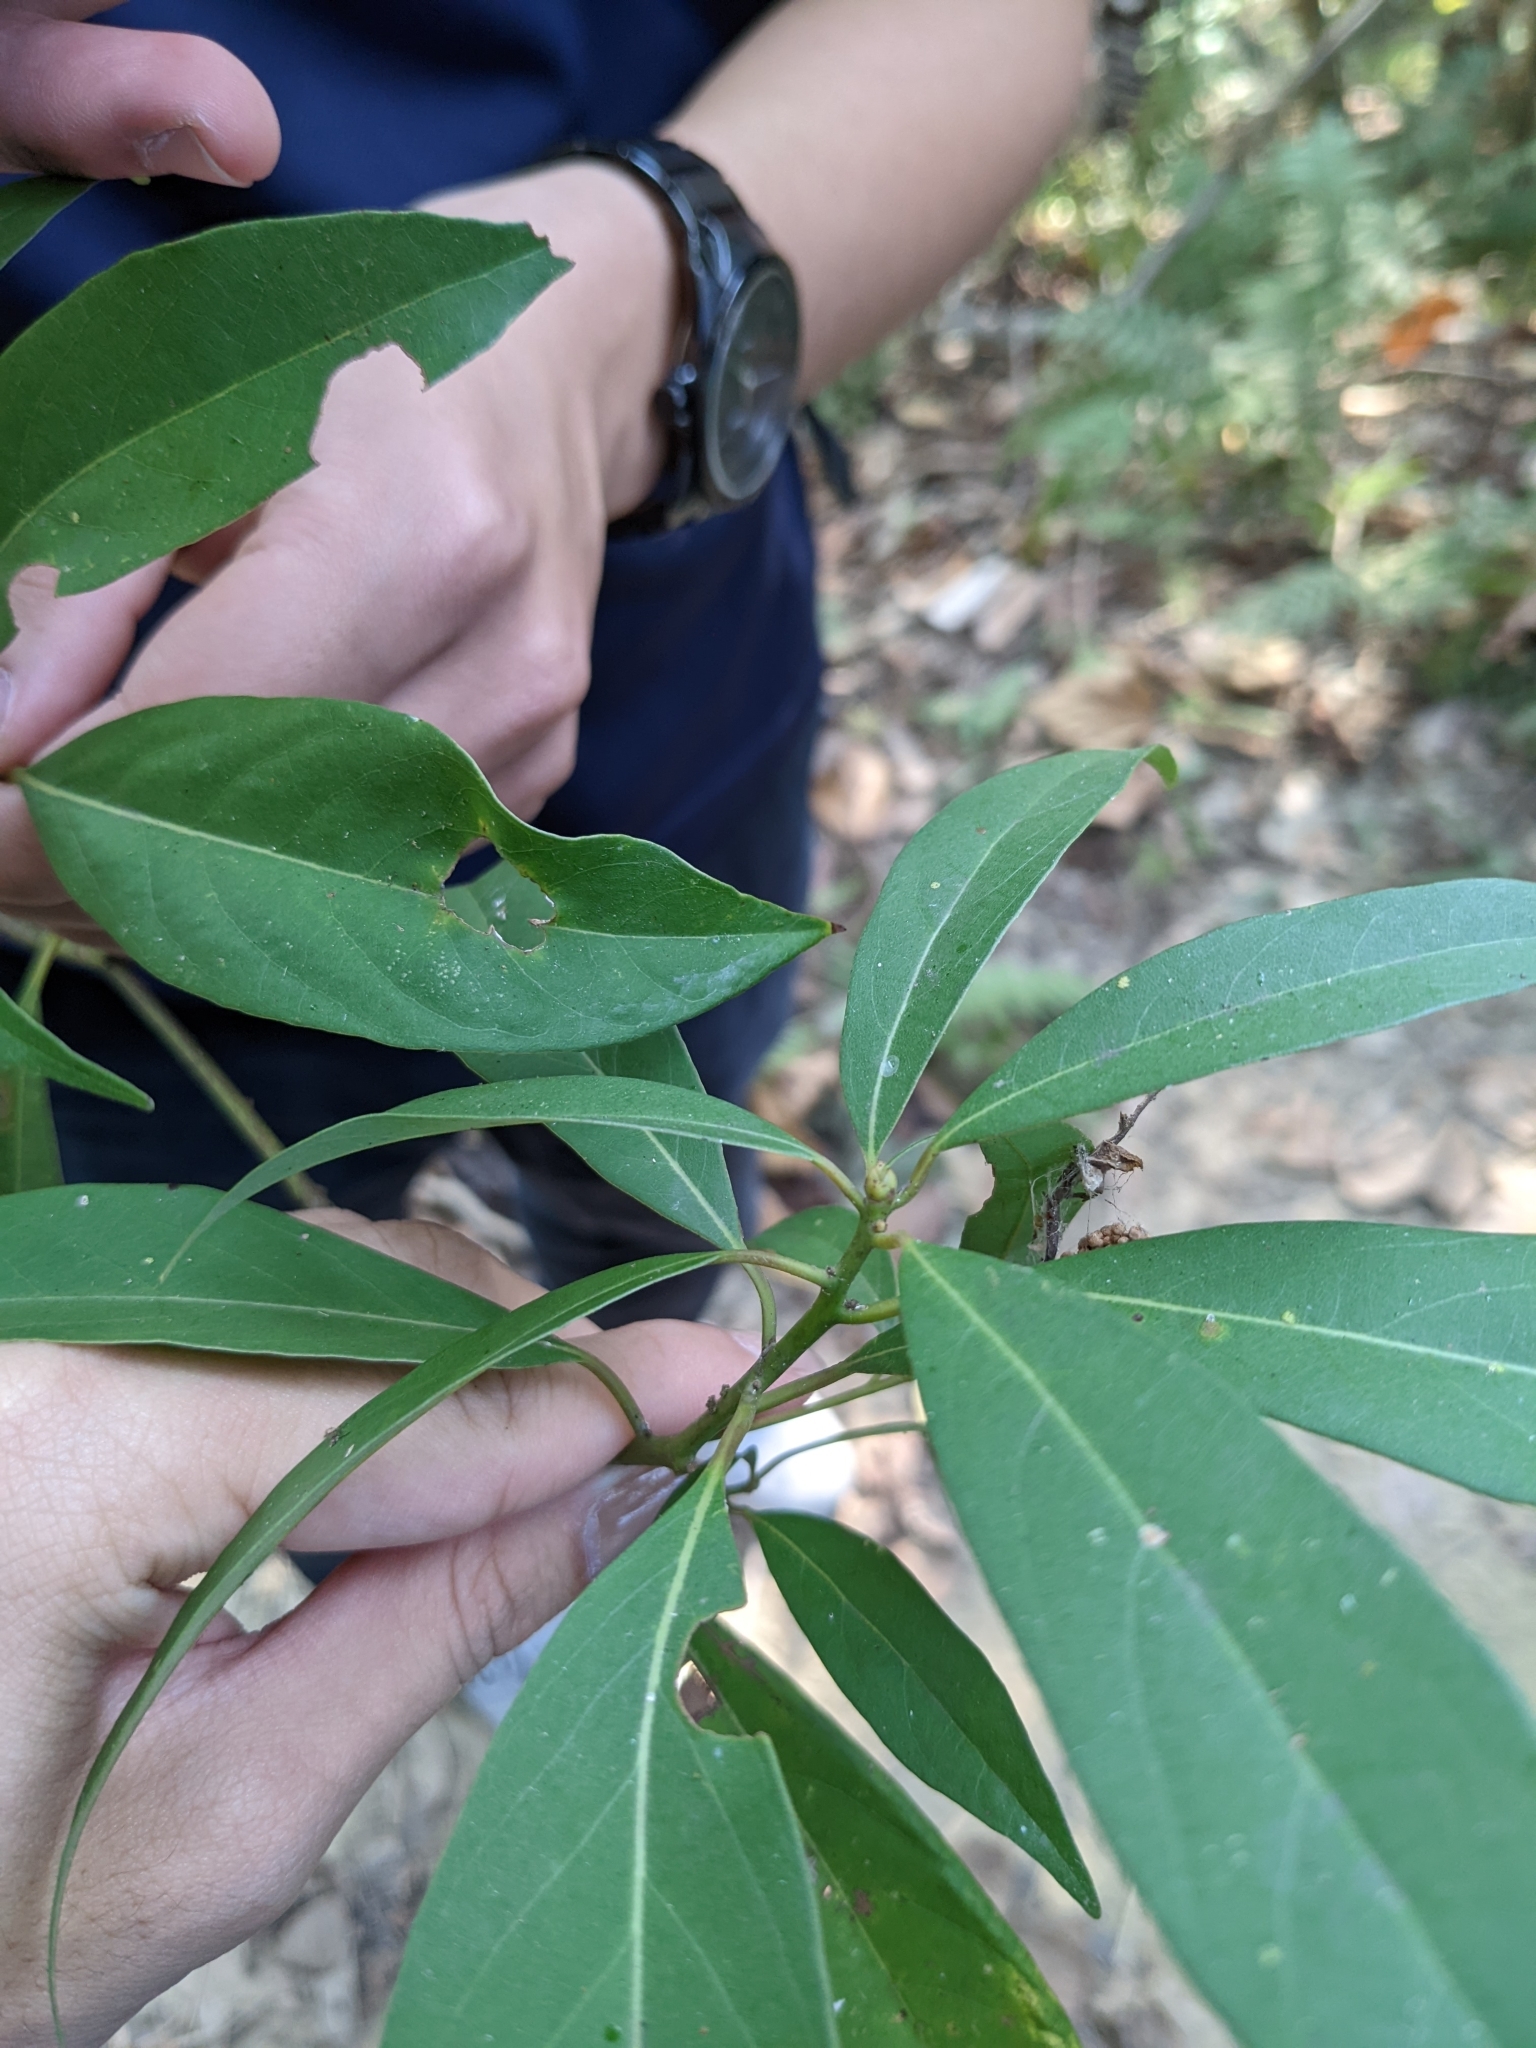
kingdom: Plantae
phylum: Tracheophyta
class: Magnoliopsida
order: Laurales
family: Lauraceae
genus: Machilus
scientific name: Machilus zuihoensis
